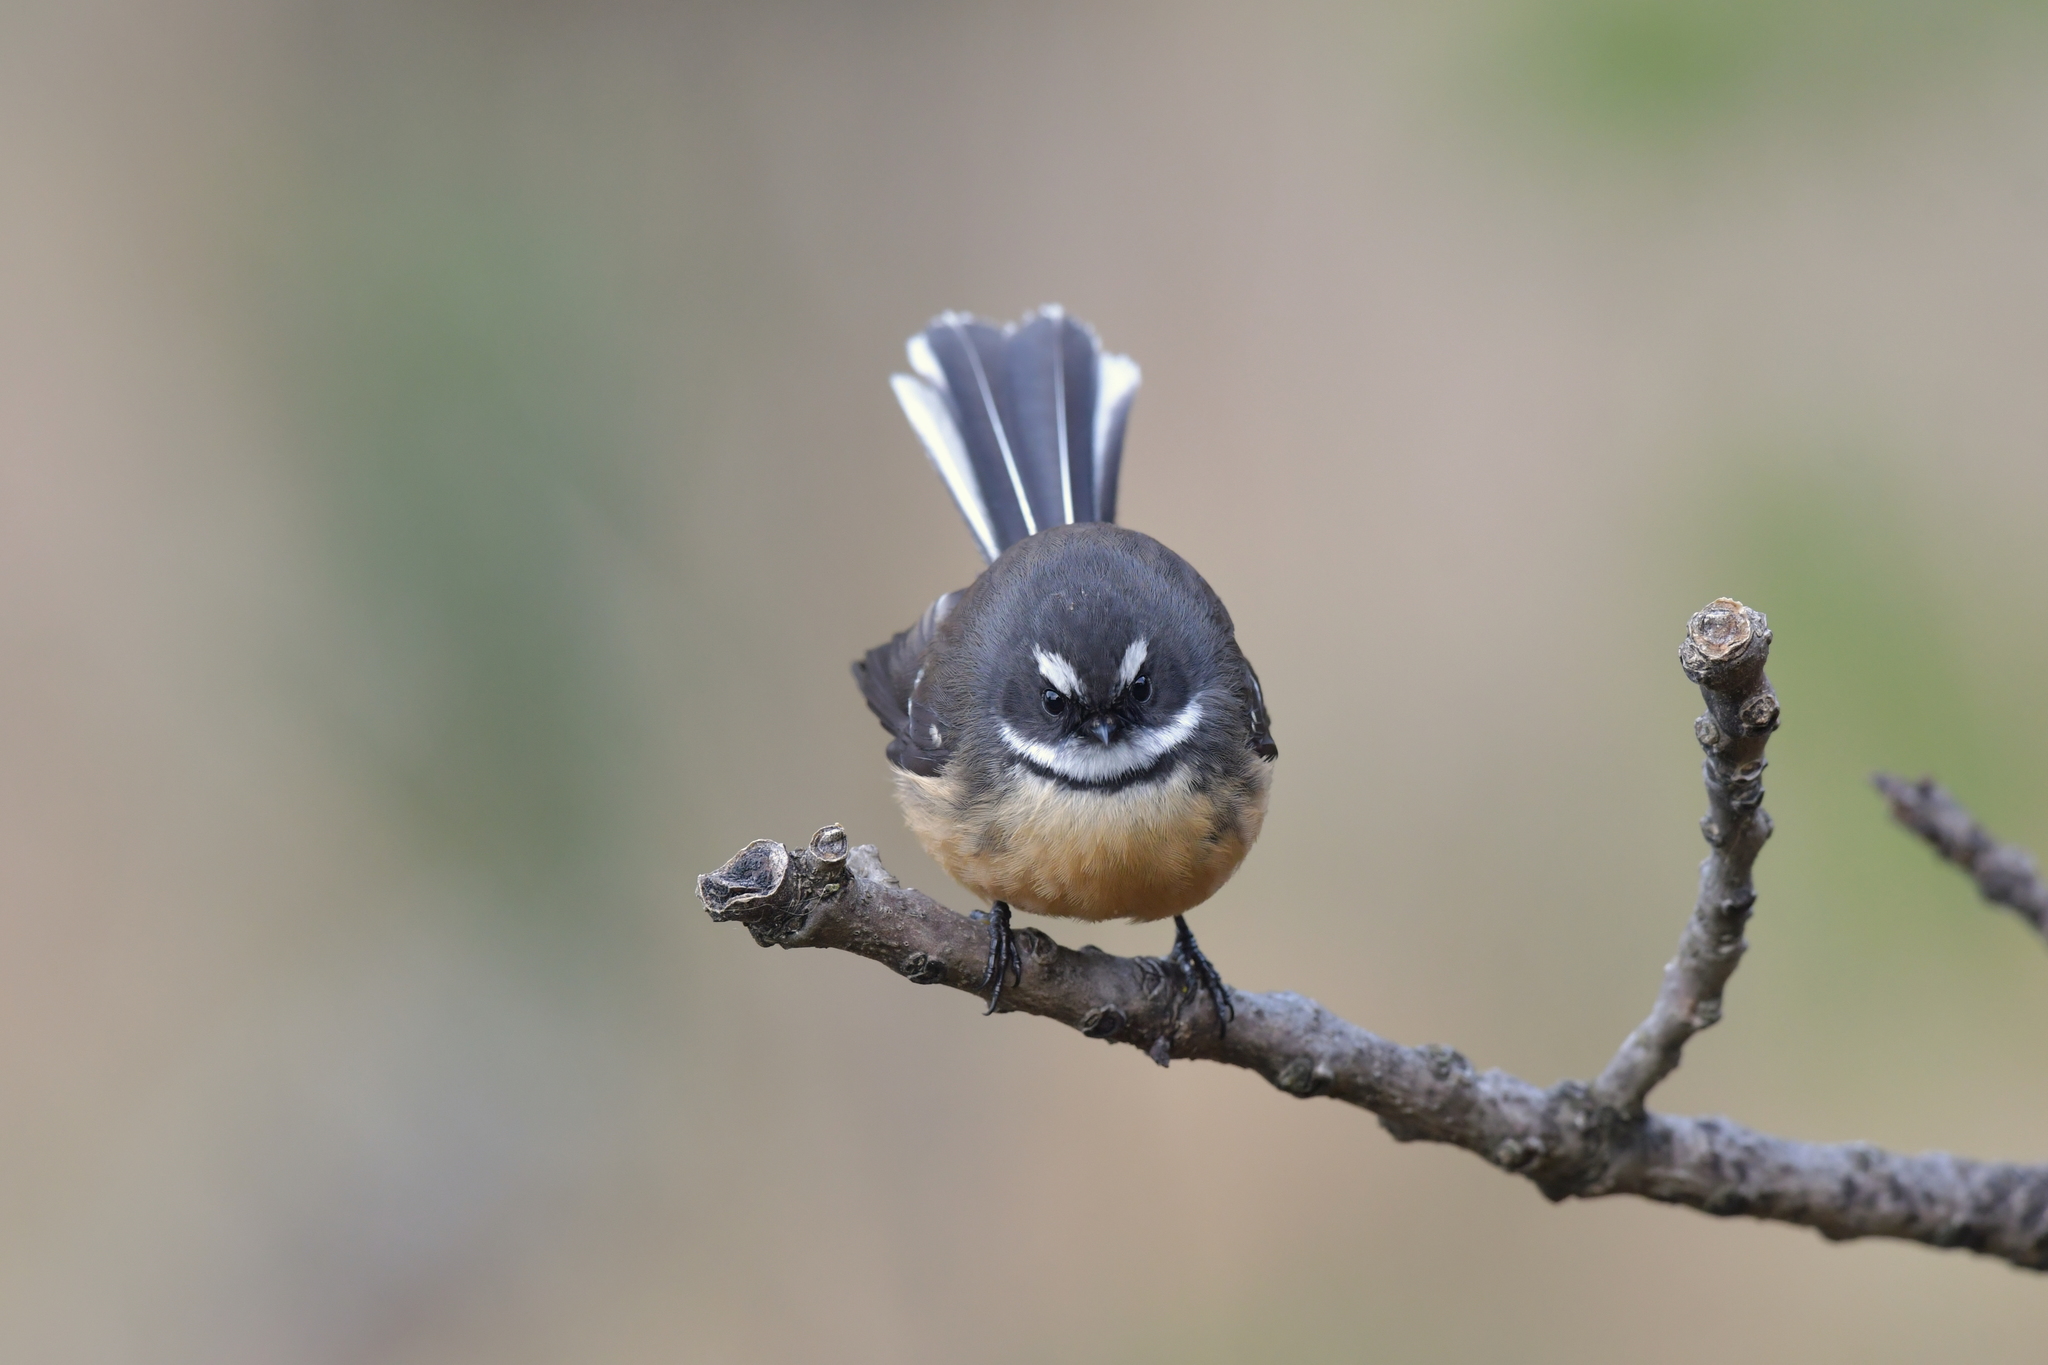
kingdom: Animalia
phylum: Chordata
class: Aves
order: Passeriformes
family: Rhipiduridae
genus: Rhipidura
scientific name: Rhipidura fuliginosa
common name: New zealand fantail
